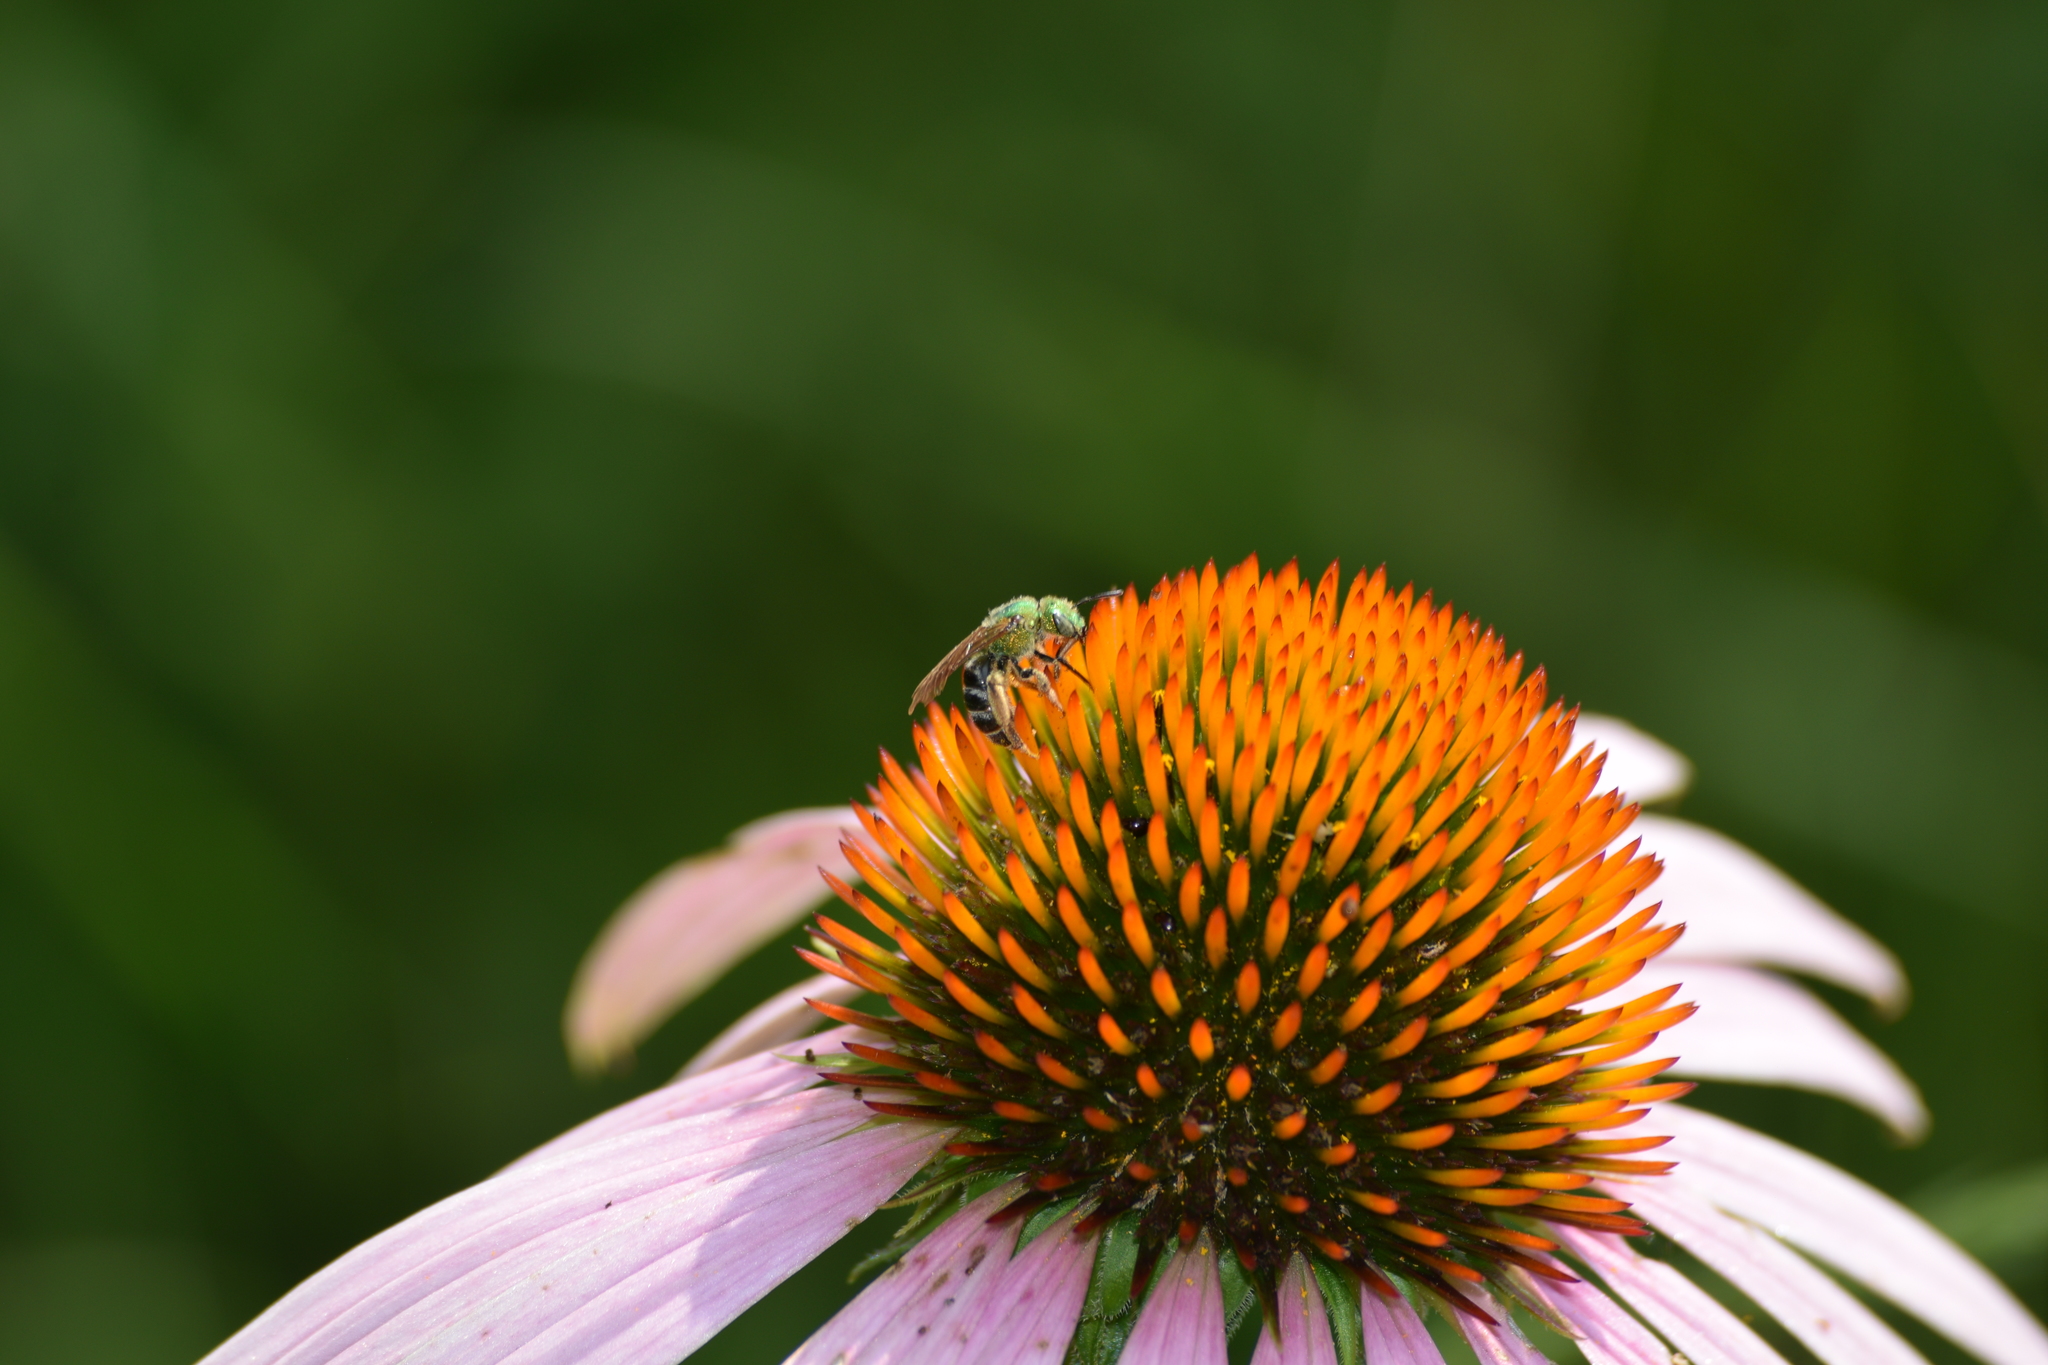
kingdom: Animalia
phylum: Arthropoda
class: Insecta
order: Hymenoptera
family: Halictidae
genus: Agapostemon
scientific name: Agapostemon virescens
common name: Bicolored striped sweat bee
